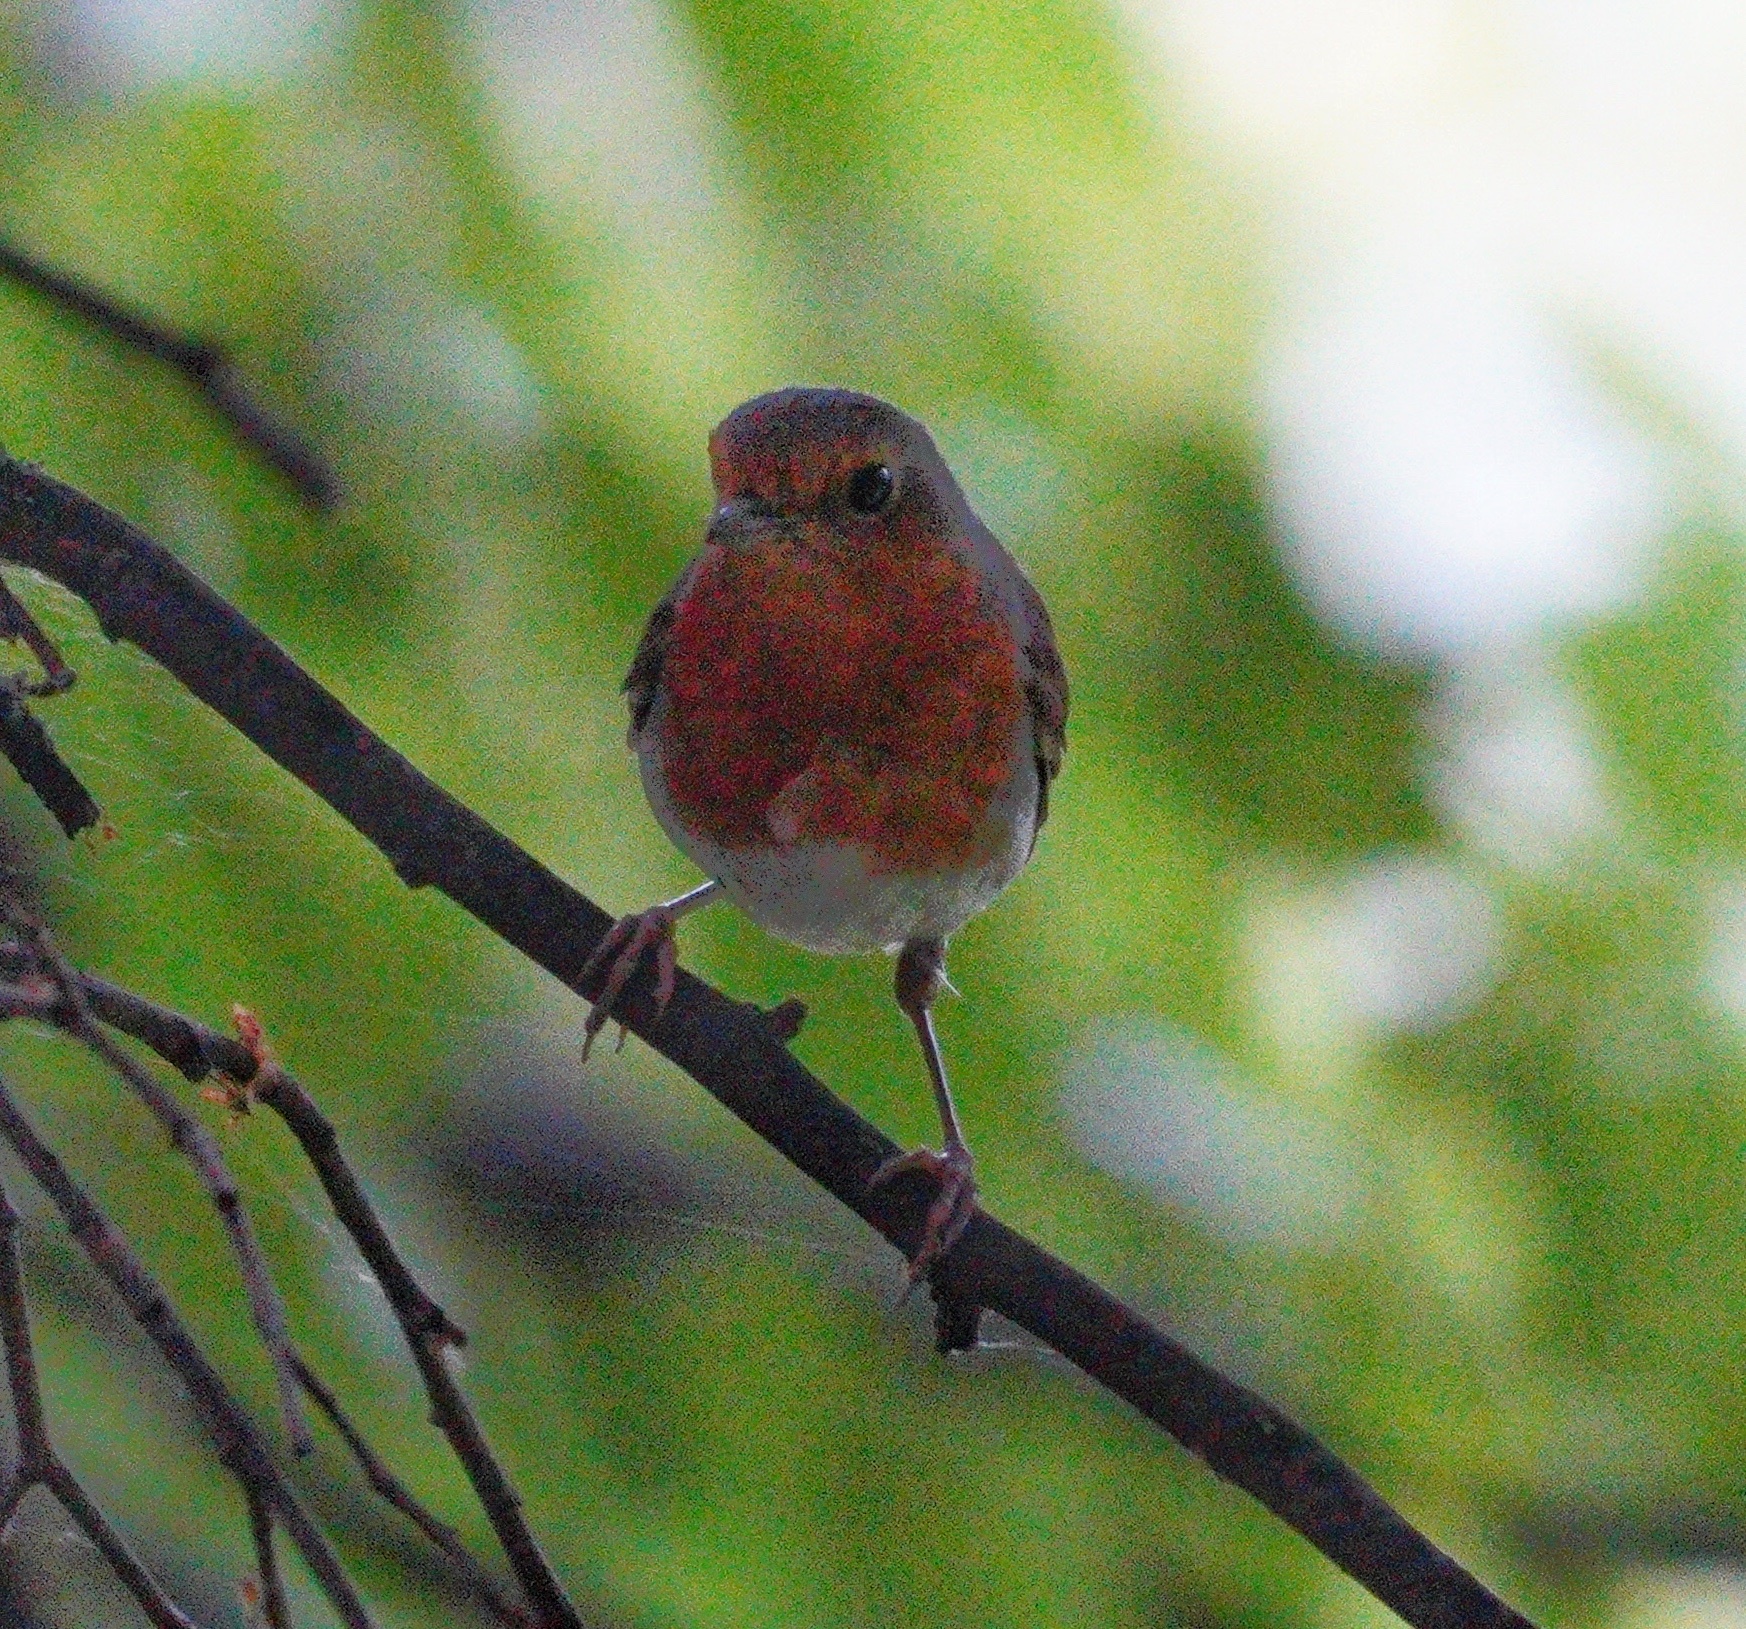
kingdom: Animalia
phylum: Chordata
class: Aves
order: Passeriformes
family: Muscicapidae
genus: Erithacus
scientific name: Erithacus rubecula
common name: European robin
